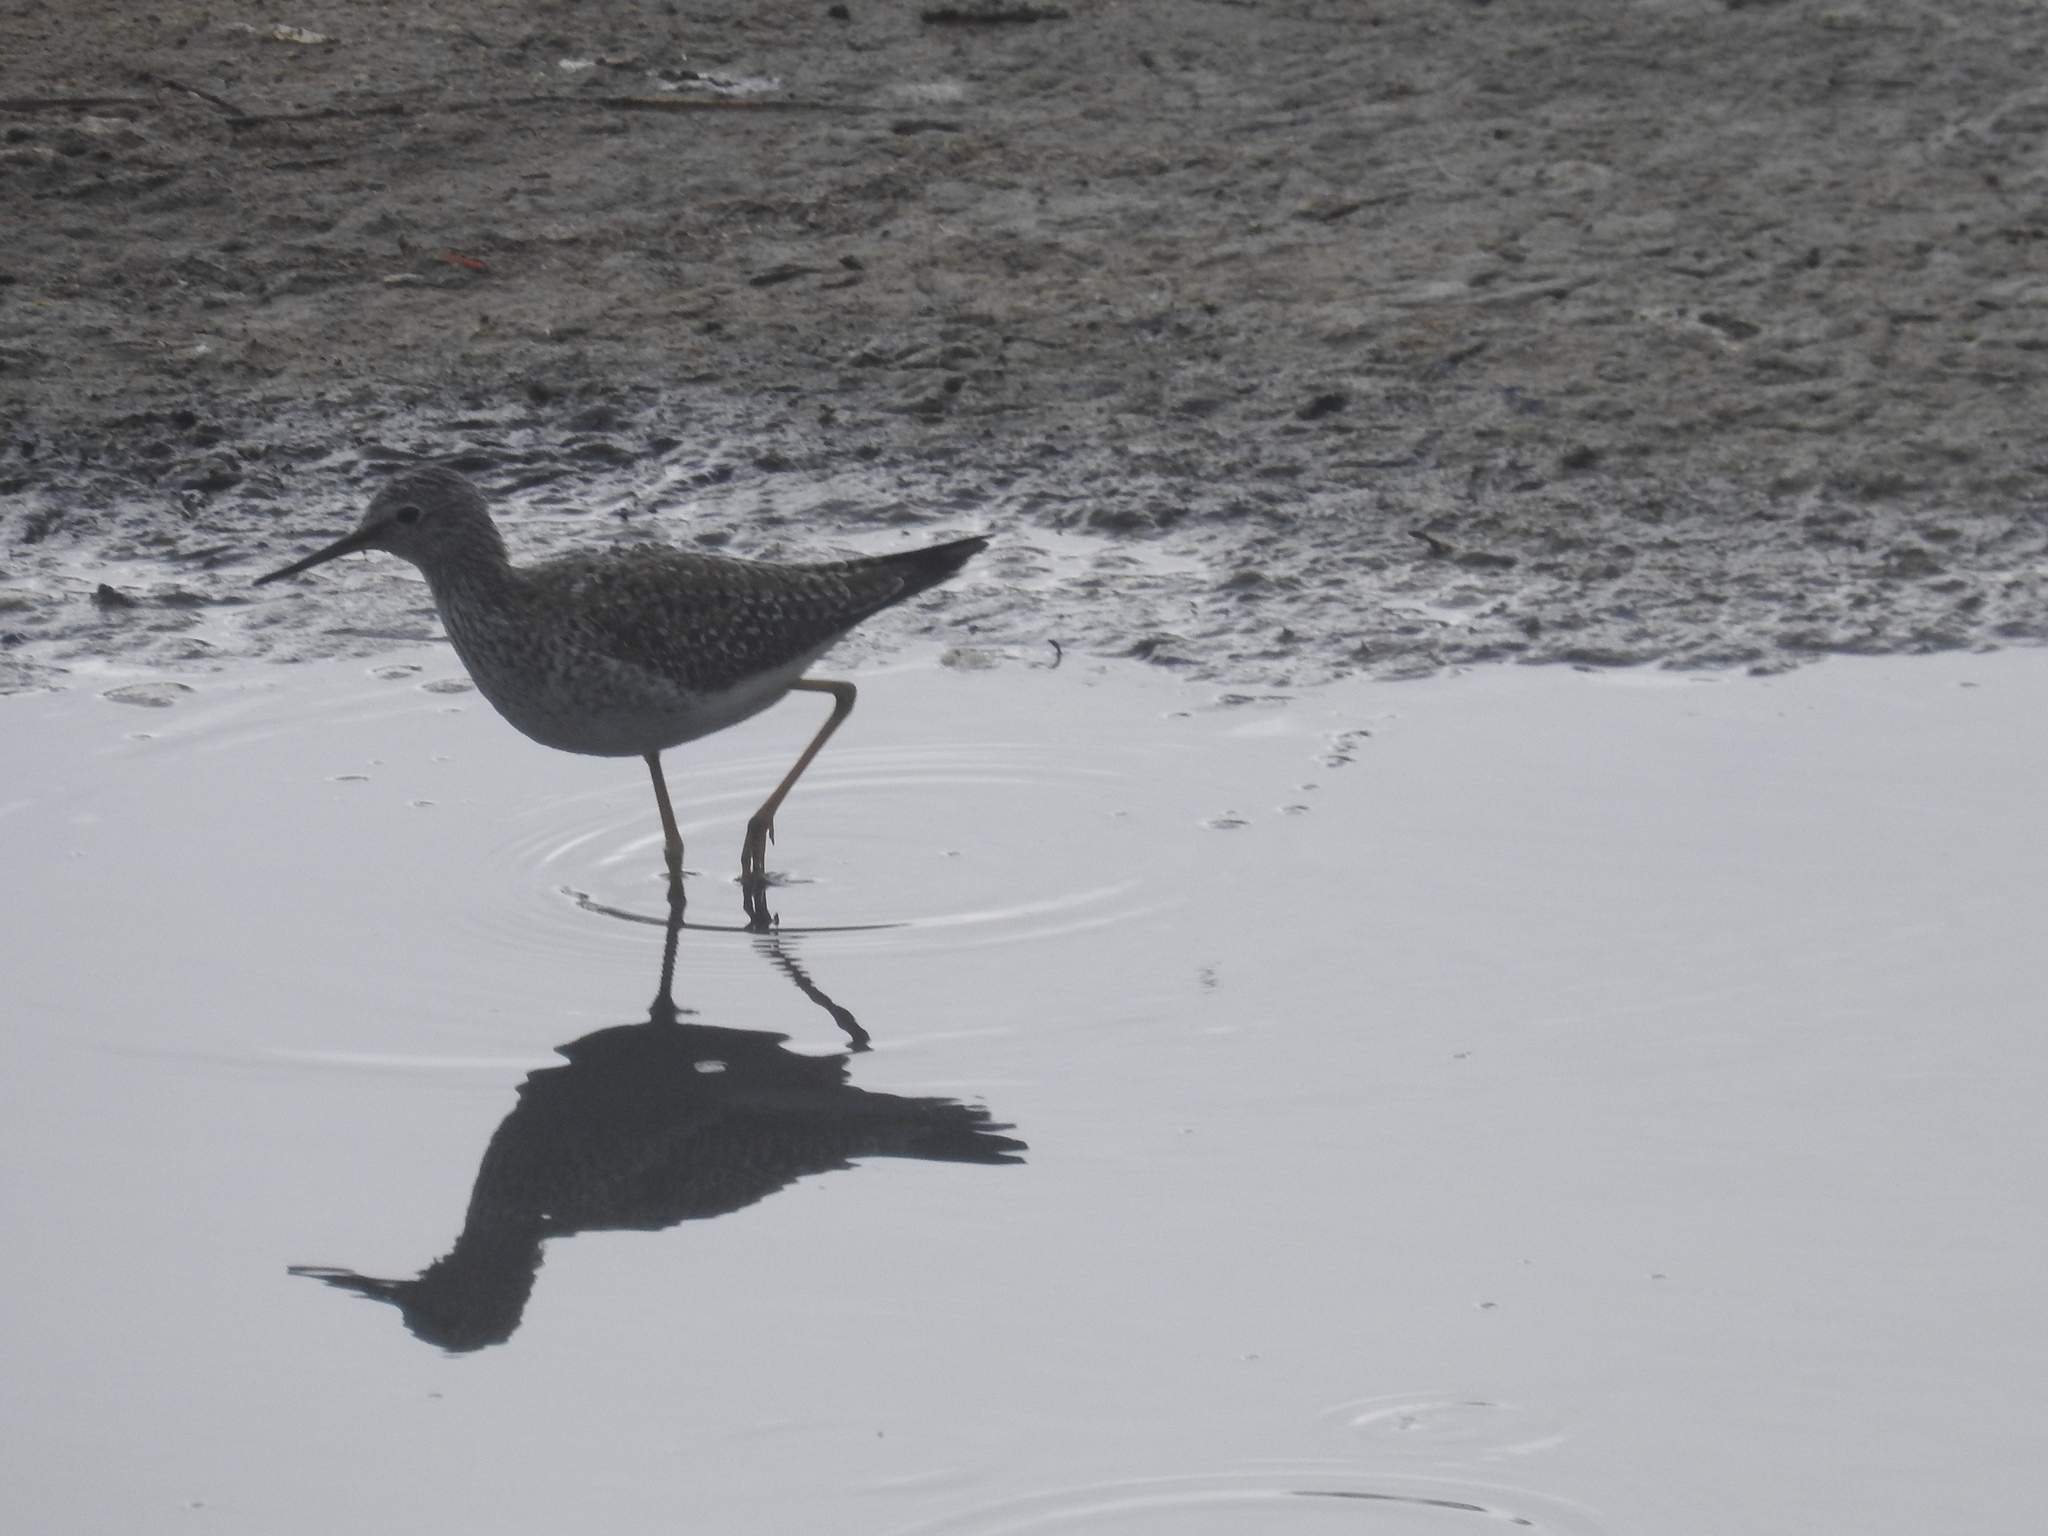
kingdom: Animalia
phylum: Chordata
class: Aves
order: Charadriiformes
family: Scolopacidae
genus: Tringa
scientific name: Tringa flavipes
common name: Lesser yellowlegs
